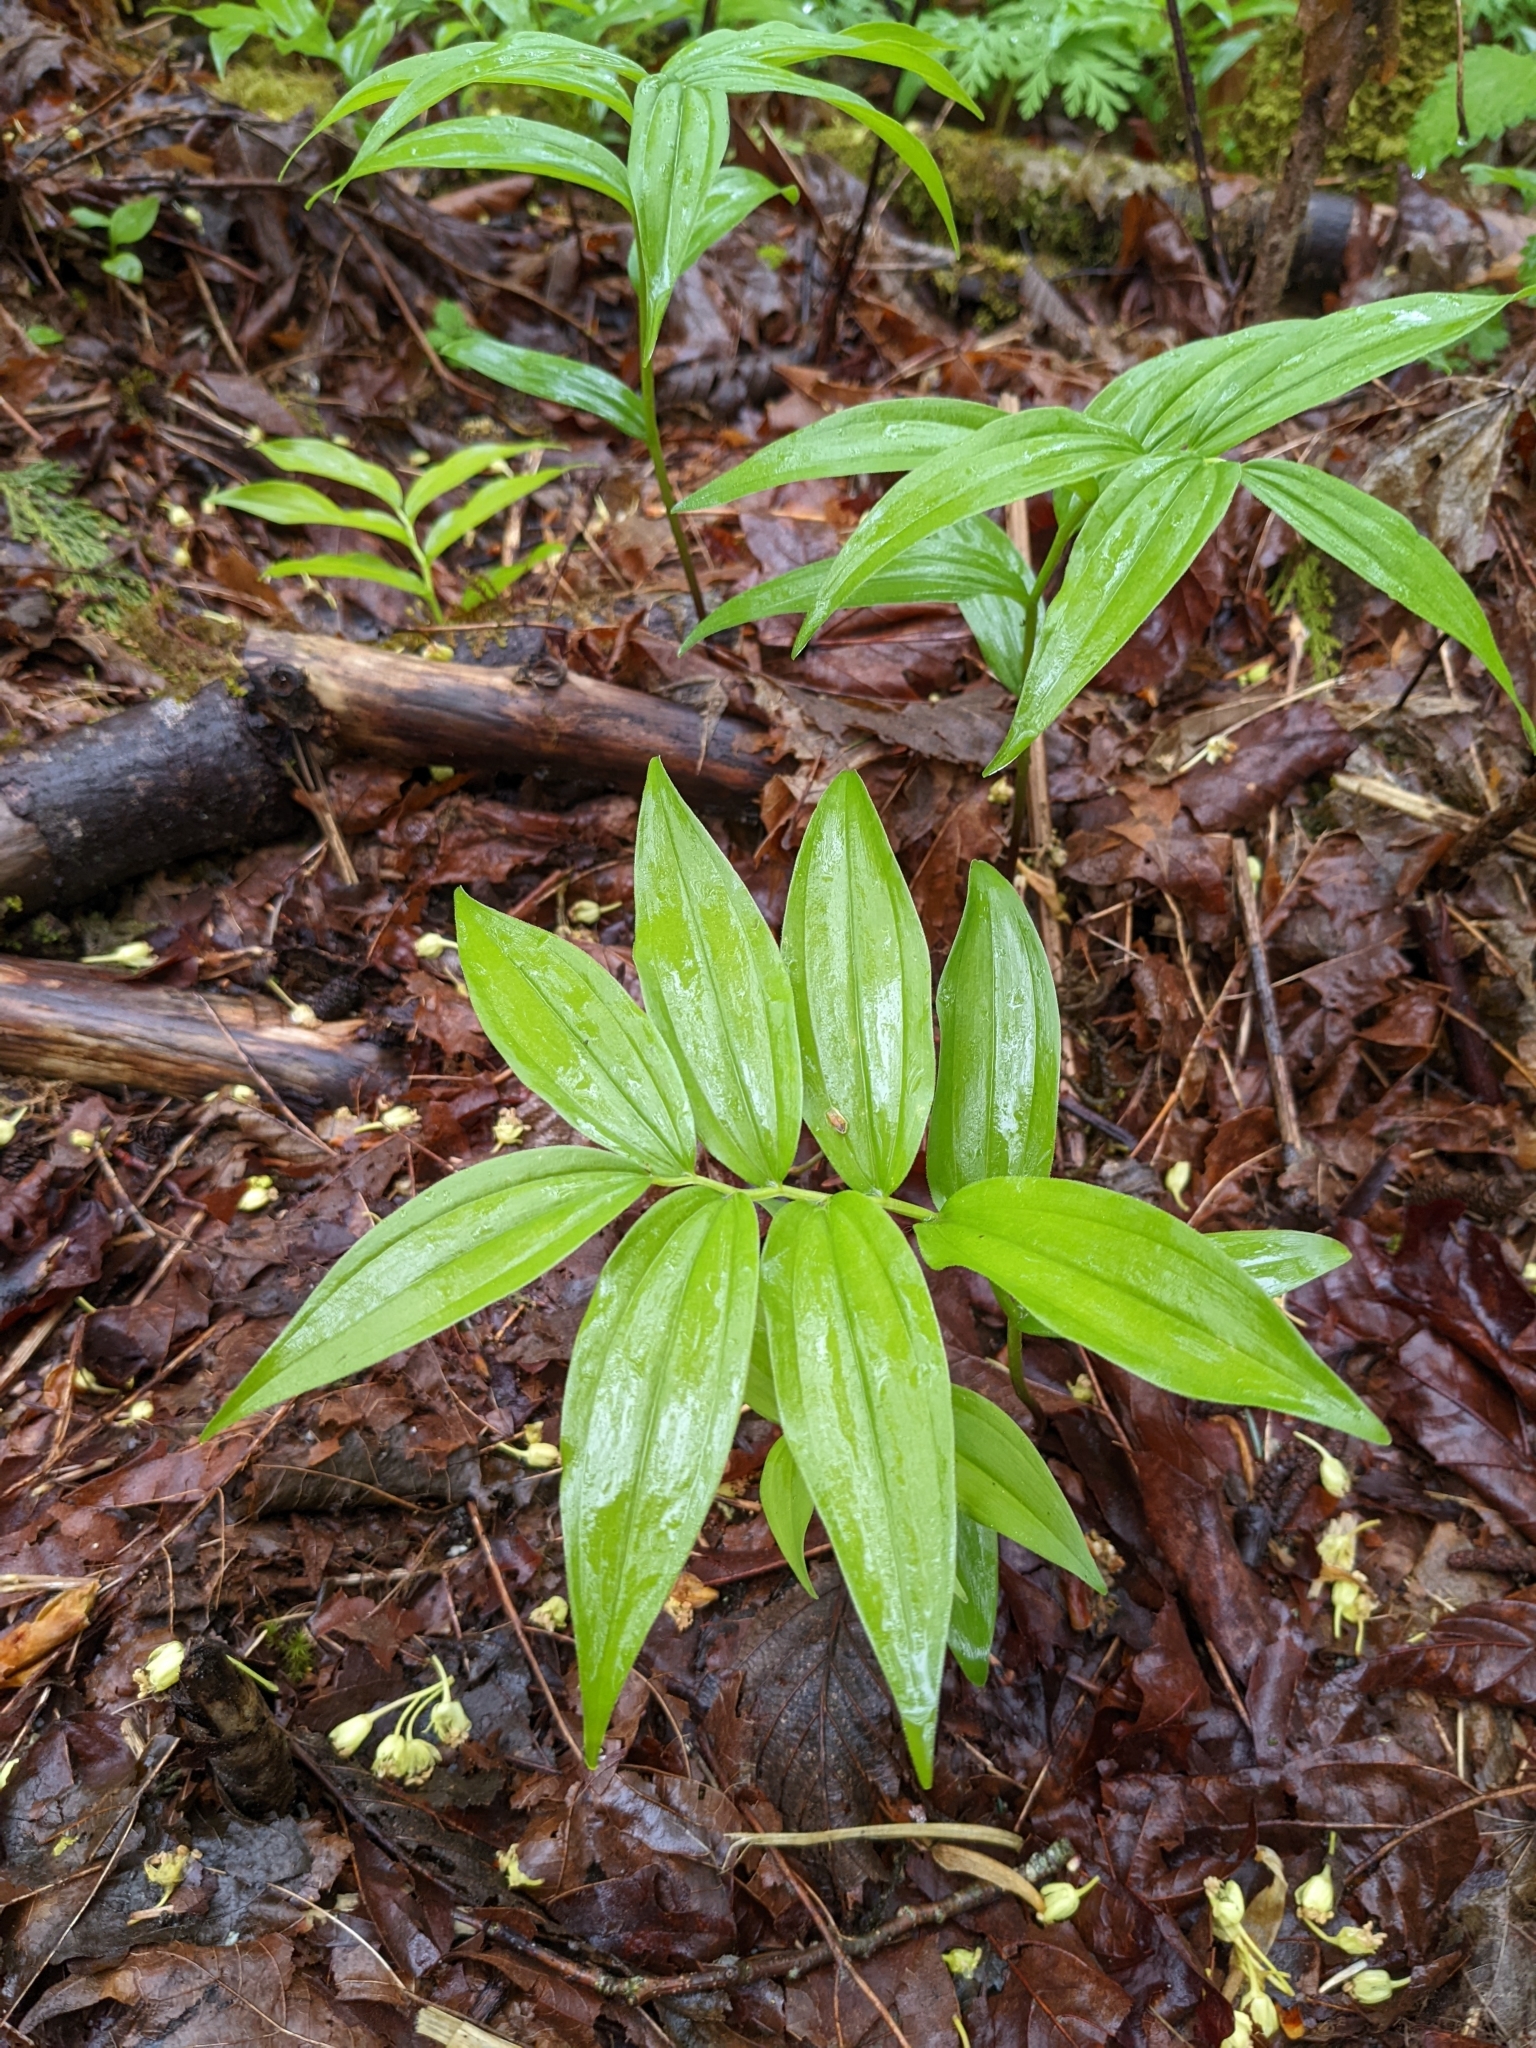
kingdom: Plantae
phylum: Tracheophyta
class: Liliopsida
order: Asparagales
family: Asparagaceae
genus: Maianthemum
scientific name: Maianthemum stellatum
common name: Little false solomon's seal
